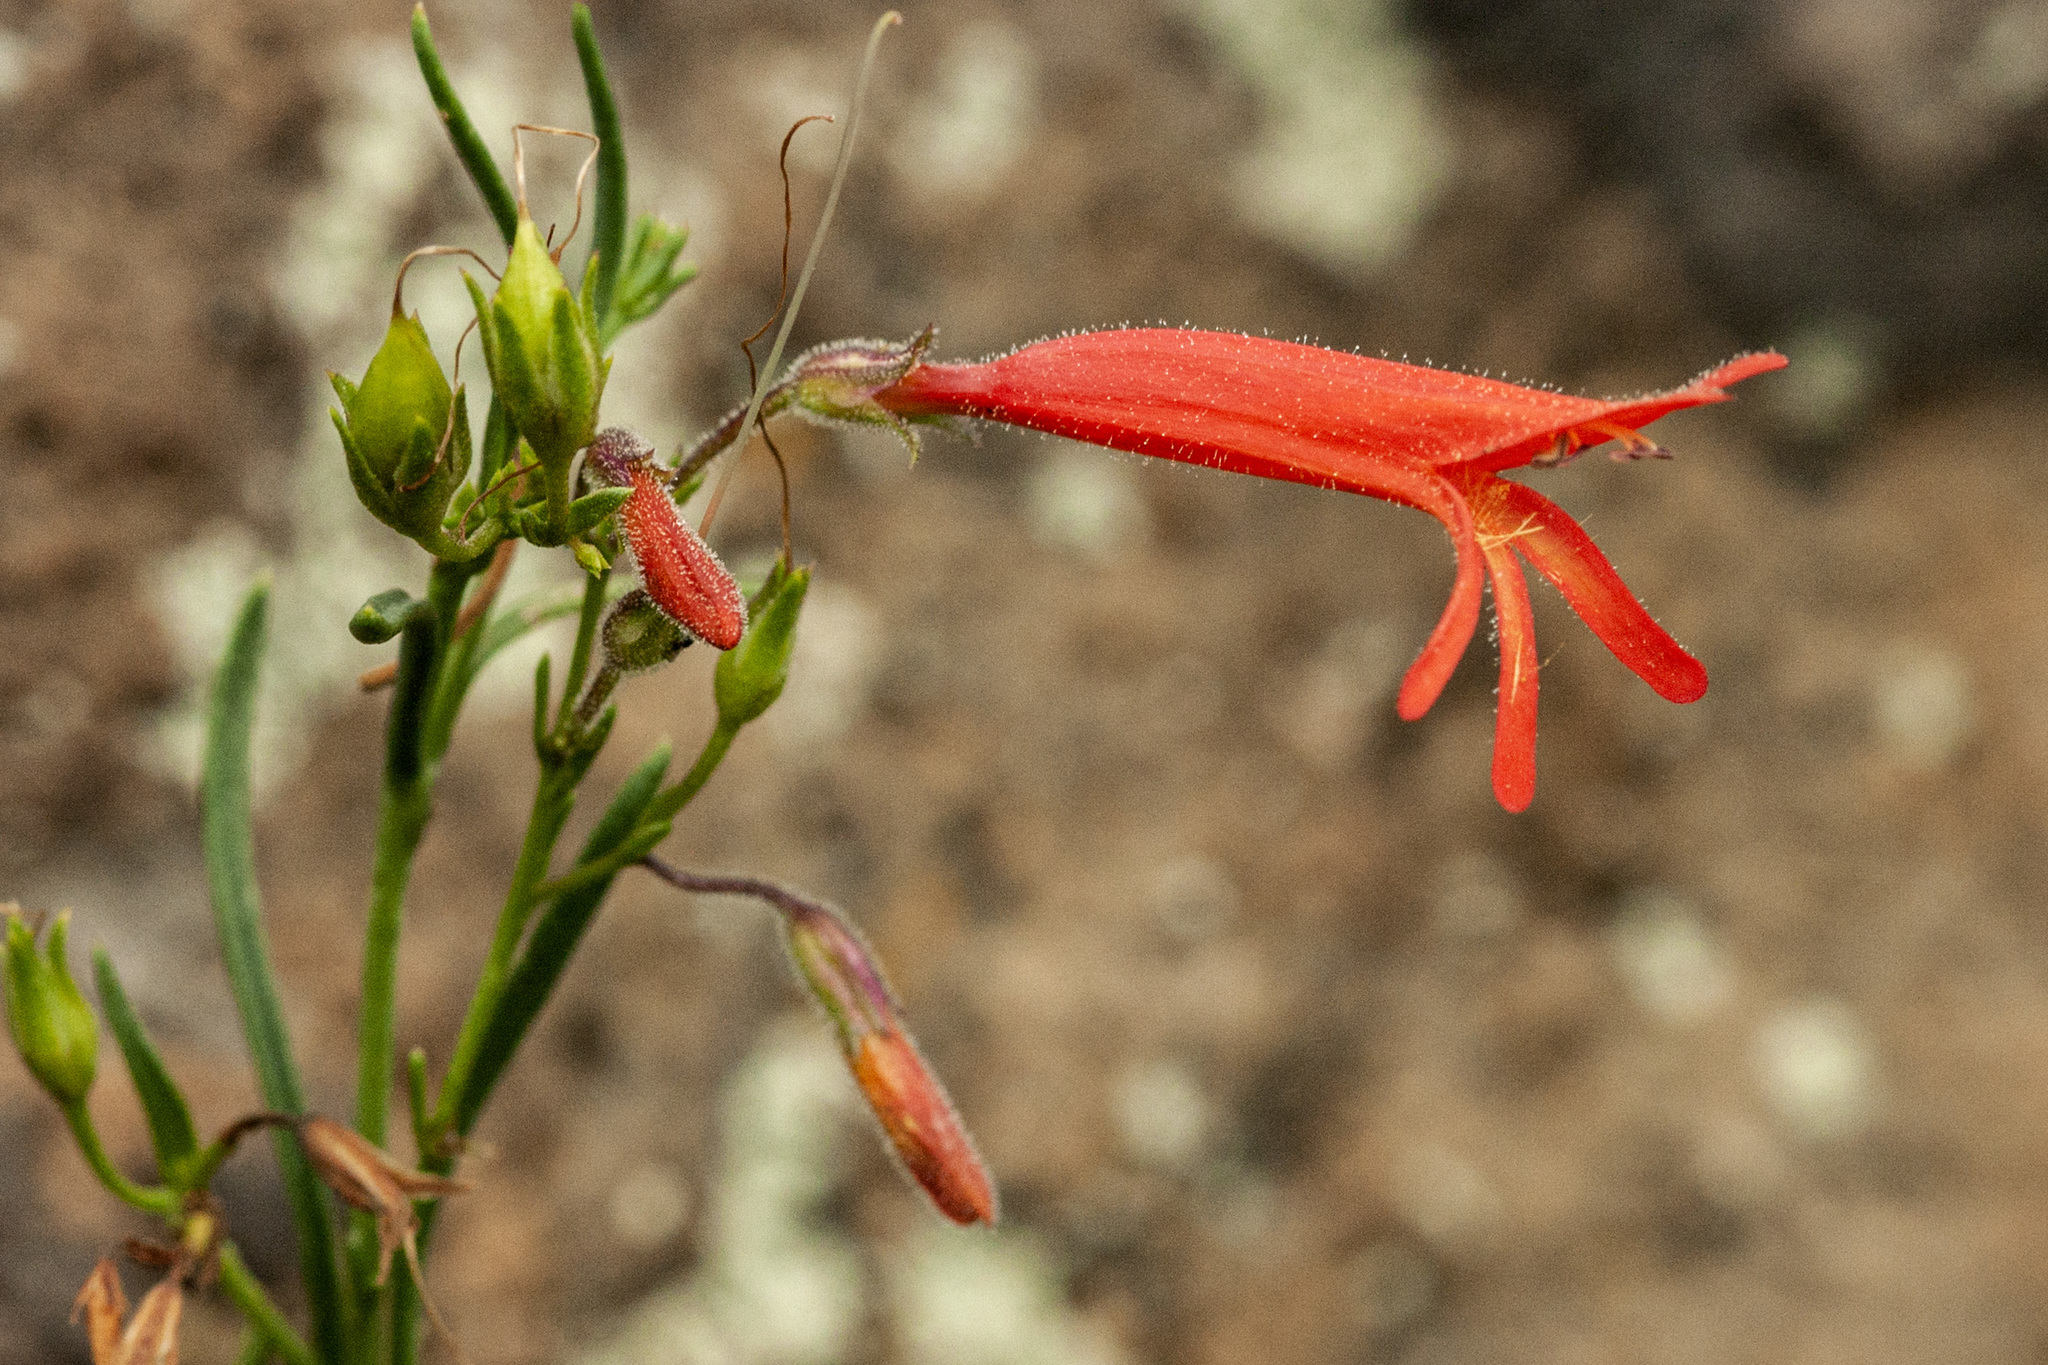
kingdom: Plantae
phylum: Tracheophyta
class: Magnoliopsida
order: Lamiales
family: Plantaginaceae
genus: Penstemon
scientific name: Penstemon pinifolius
